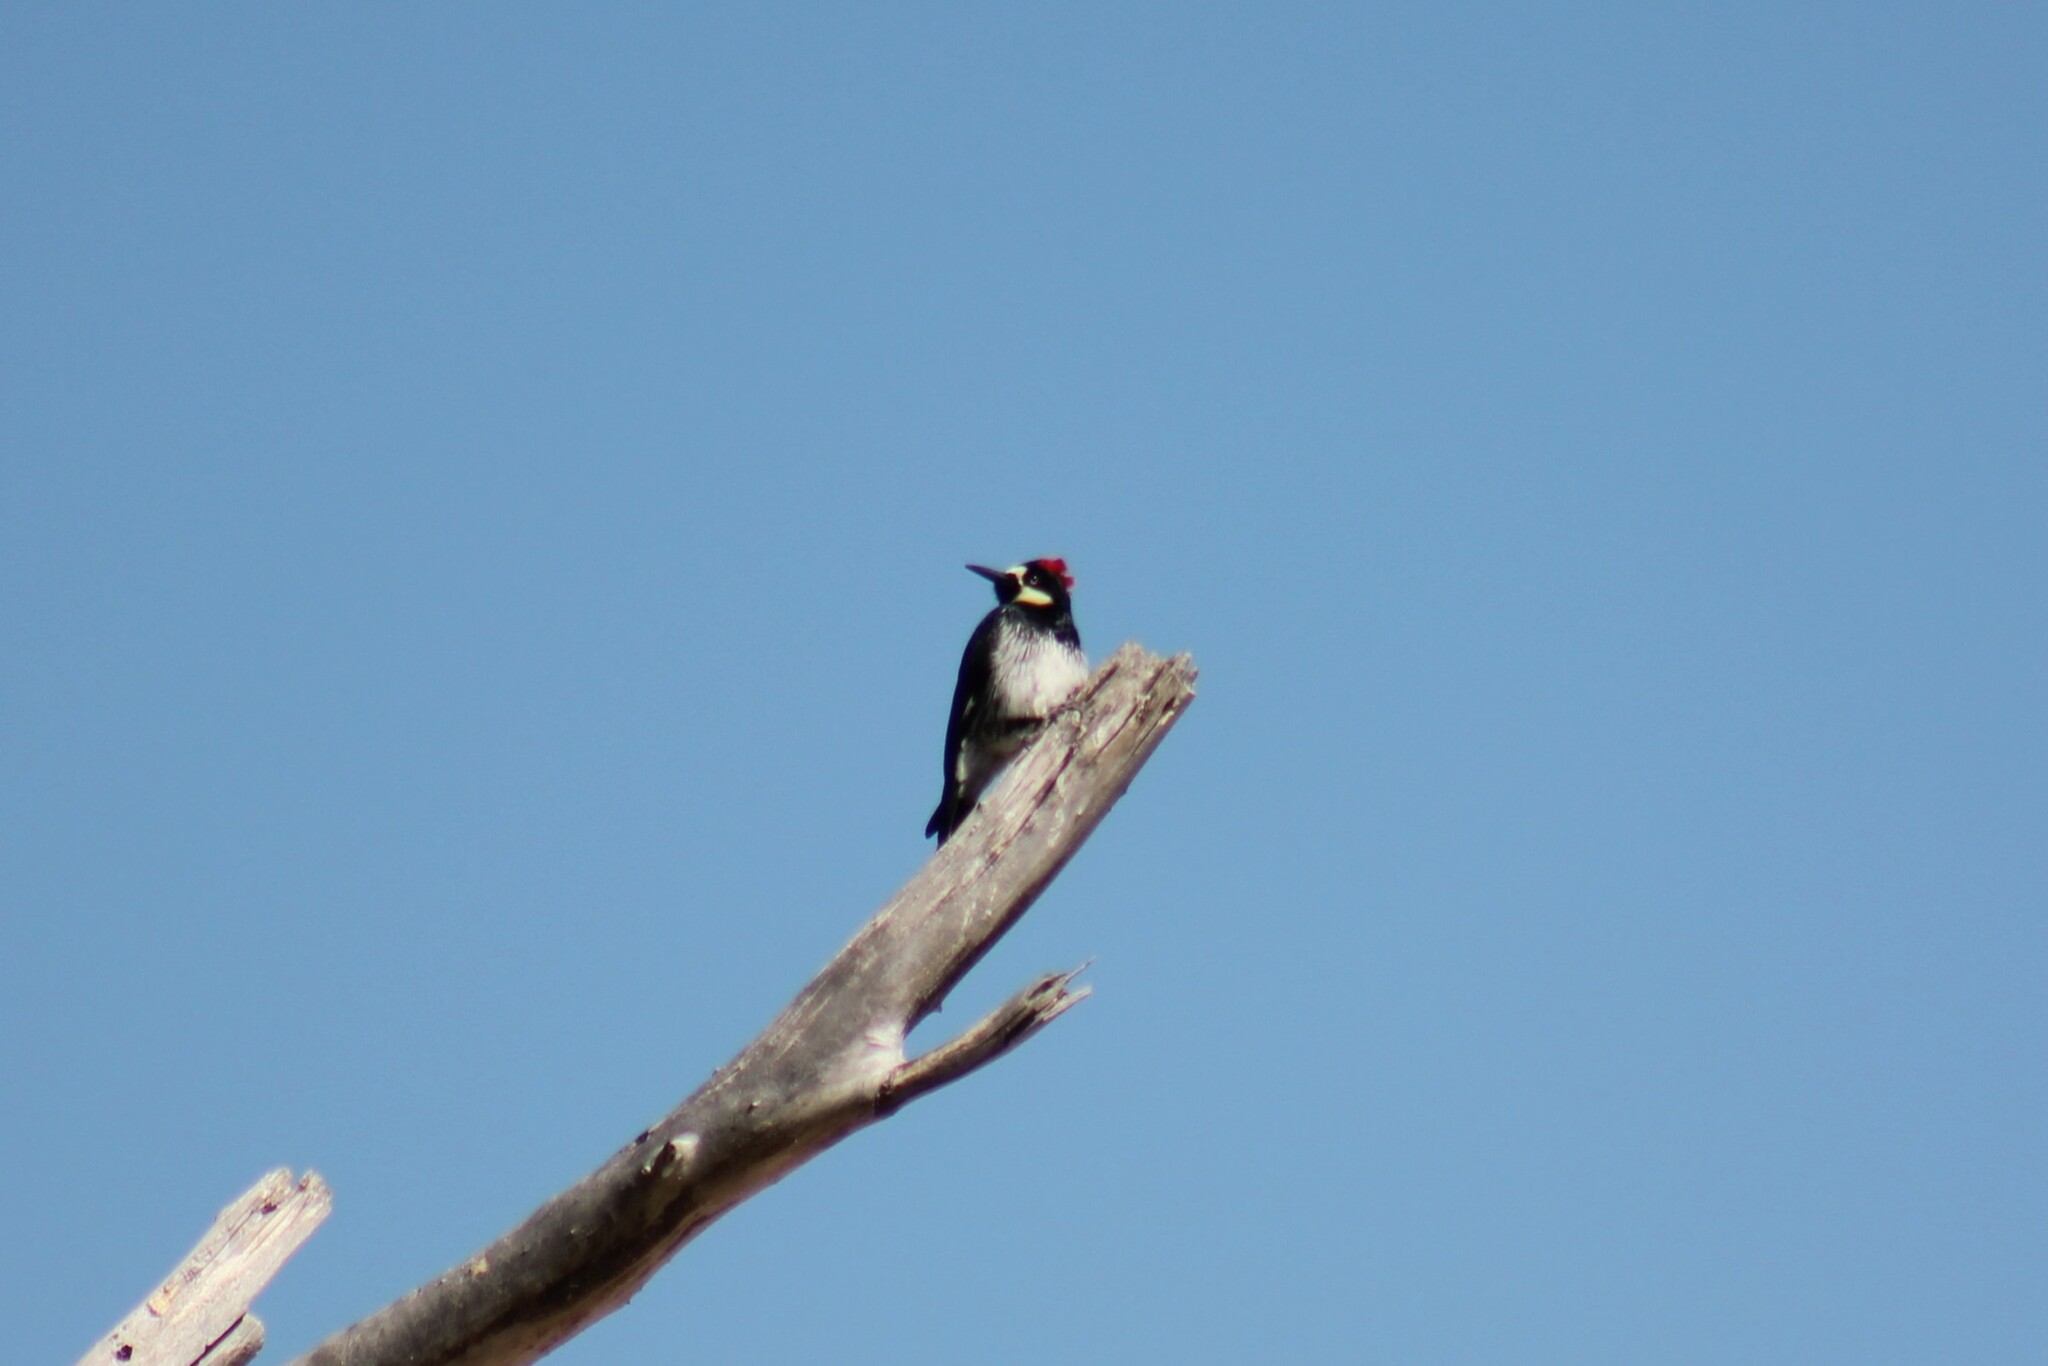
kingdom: Animalia
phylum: Chordata
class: Aves
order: Piciformes
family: Picidae
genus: Melanerpes
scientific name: Melanerpes formicivorus
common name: Acorn woodpecker
